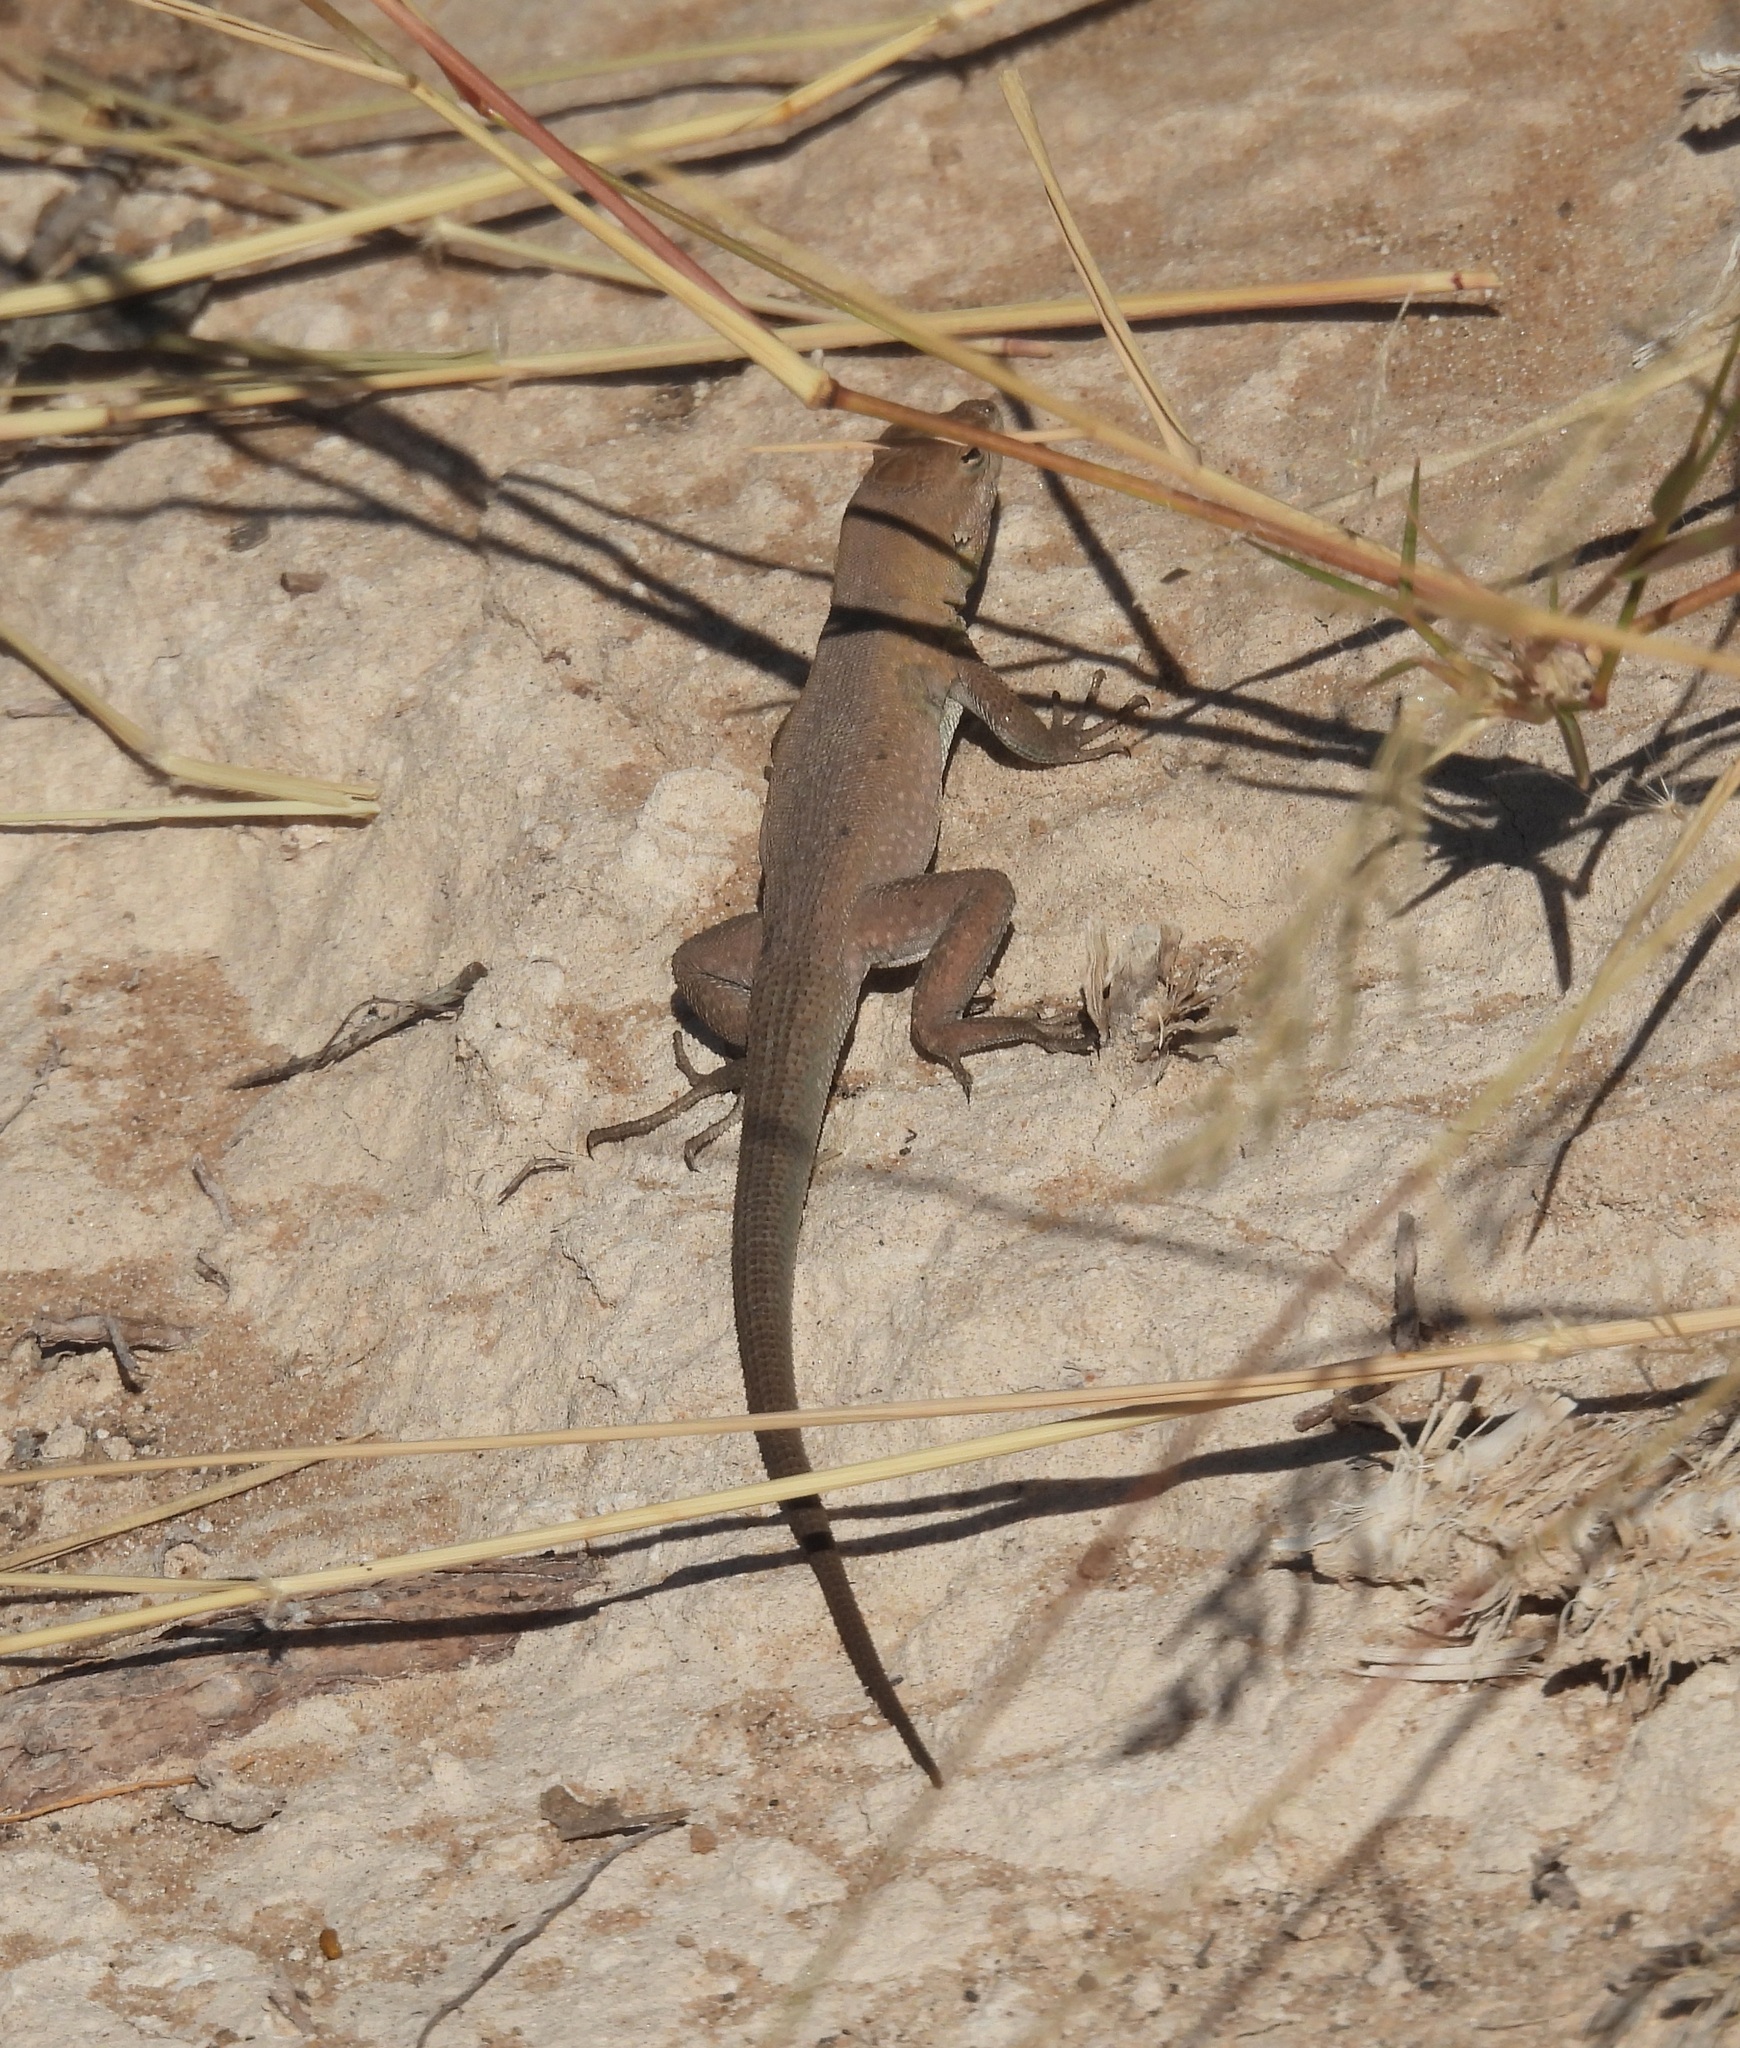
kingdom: Animalia
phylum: Chordata
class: Squamata
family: Phrynosomatidae
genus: Uta
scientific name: Uta stansburiana
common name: Side-blotched lizard
